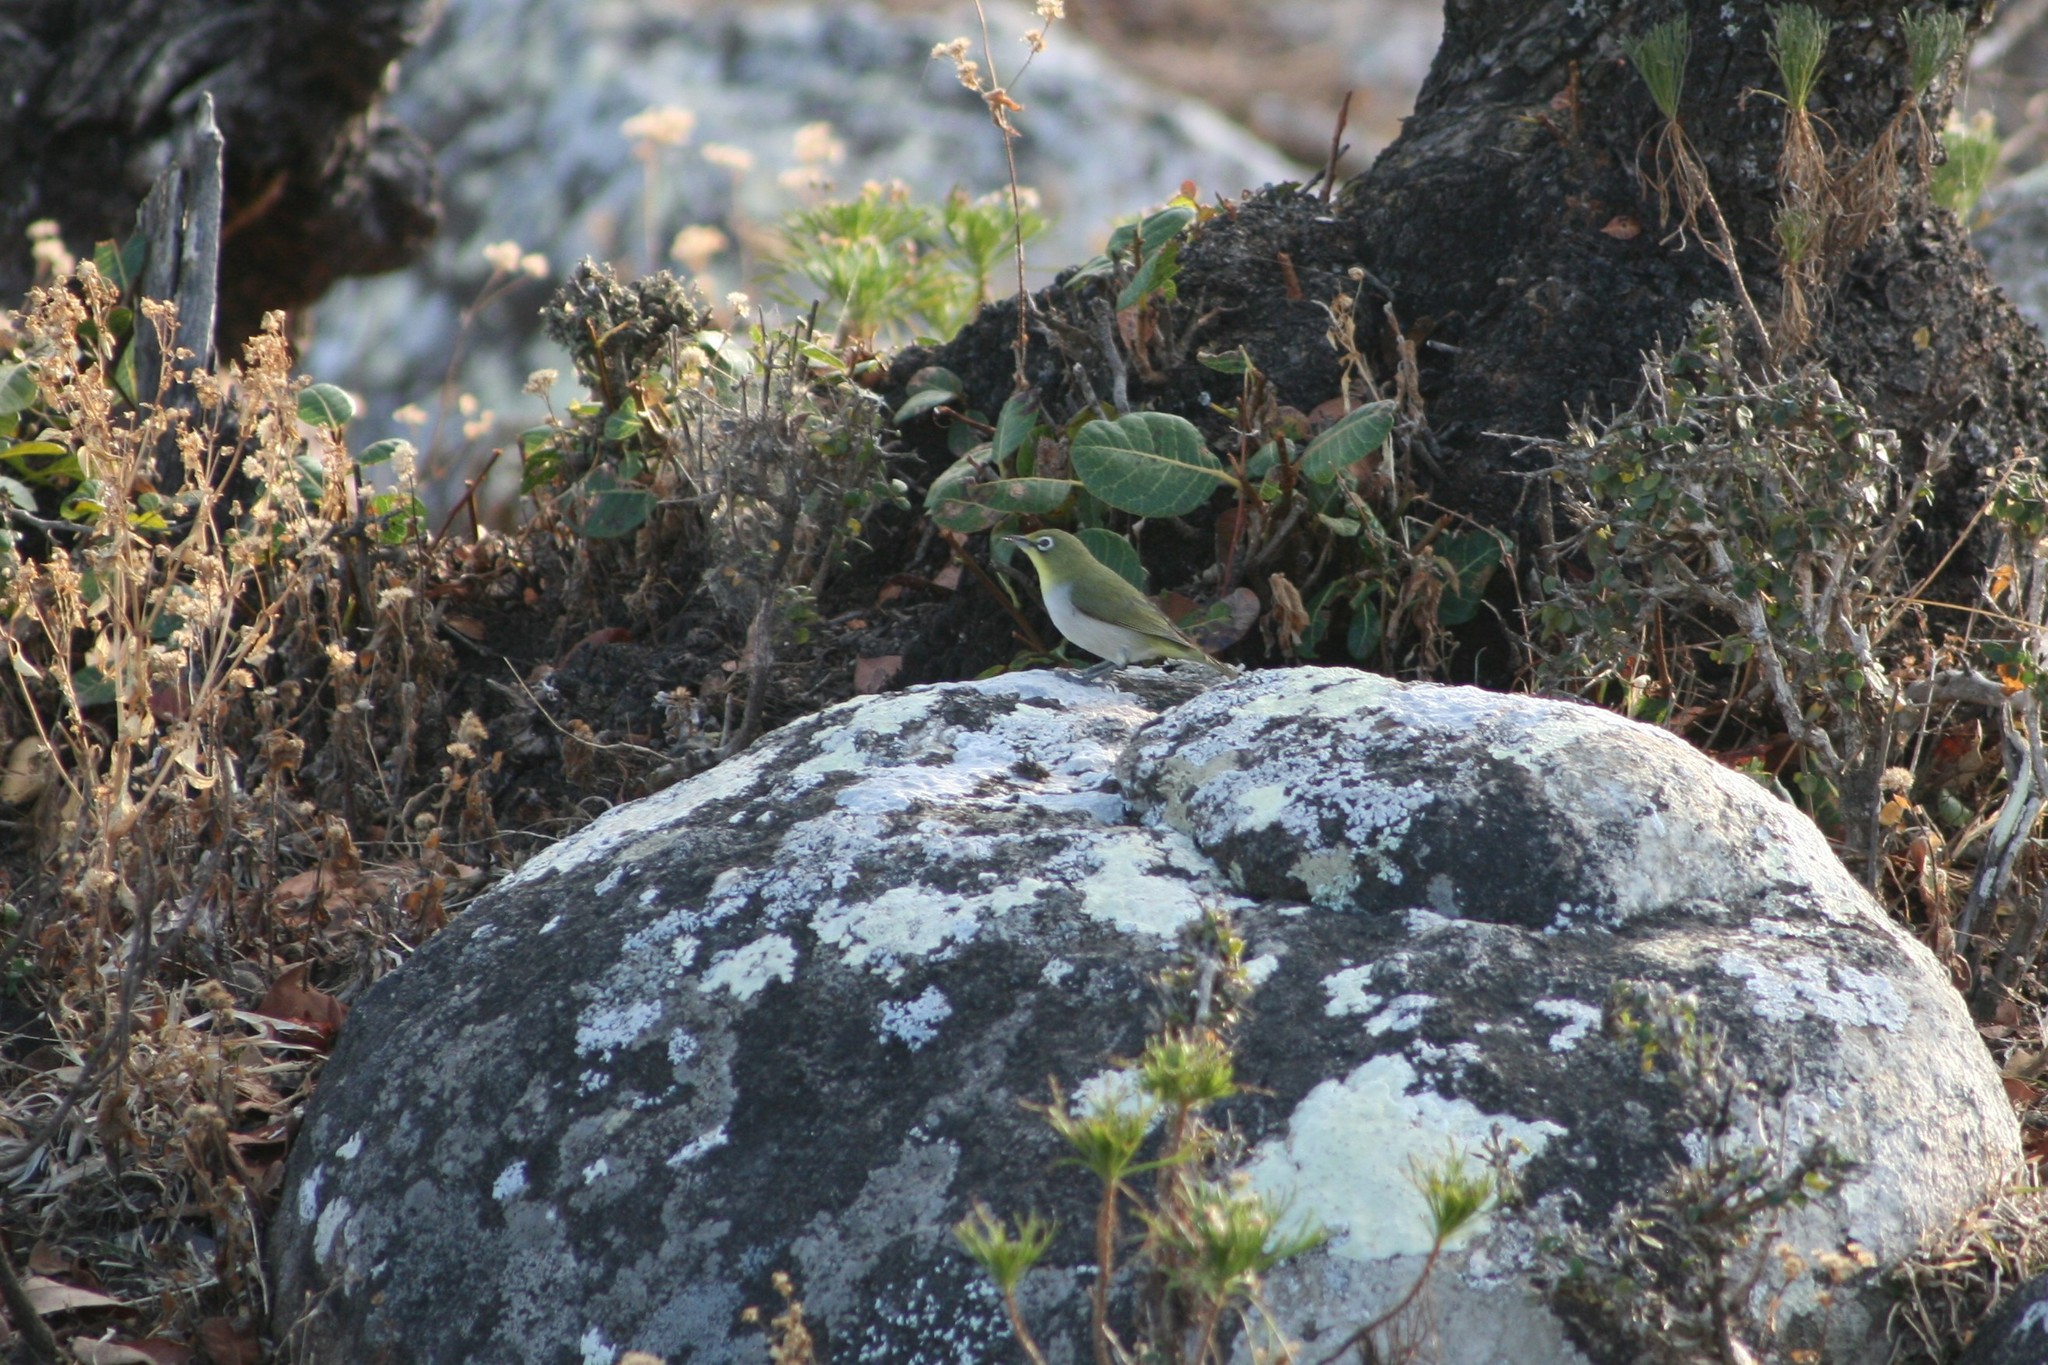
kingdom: Animalia
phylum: Chordata
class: Aves
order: Passeriformes
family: Zosteropidae
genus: Zosterops
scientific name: Zosterops socotranus
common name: Socotra white-eye
